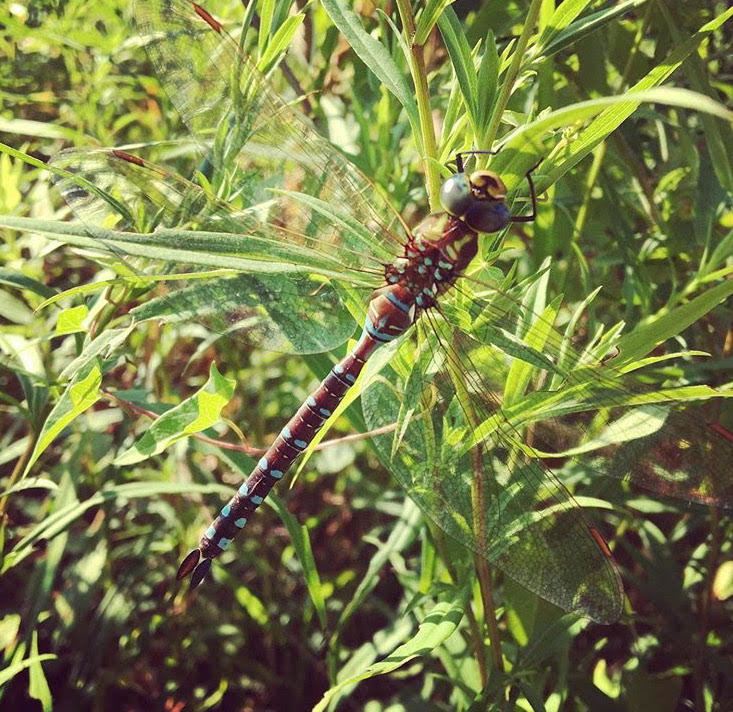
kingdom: Animalia
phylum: Arthropoda
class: Insecta
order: Odonata
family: Aeshnidae
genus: Aeshna
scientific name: Aeshna constricta
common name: Lance-tipped darner
